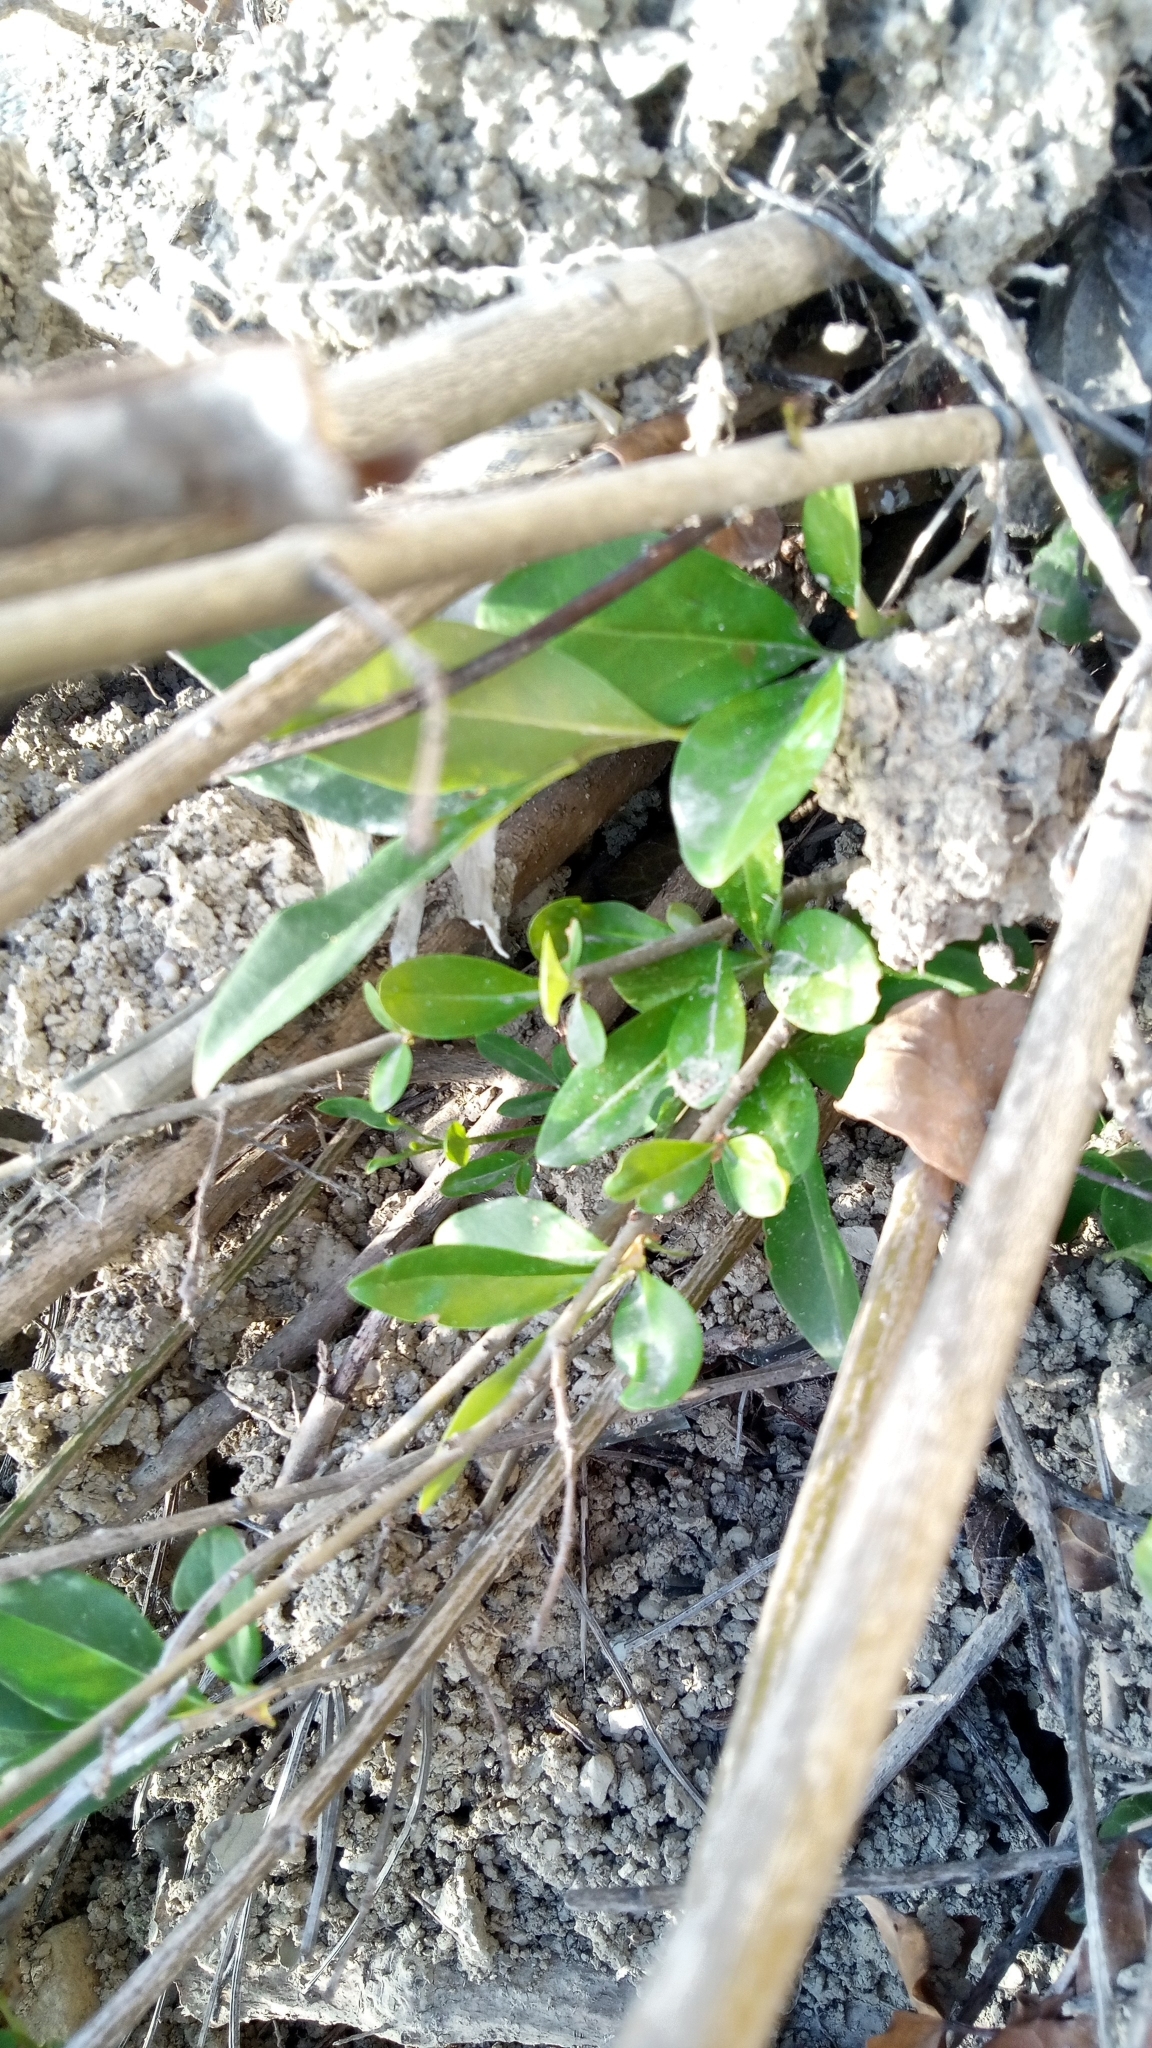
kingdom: Plantae
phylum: Tracheophyta
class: Magnoliopsida
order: Lamiales
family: Oleaceae
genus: Ligustrum
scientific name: Ligustrum vulgare
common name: Wild privet
